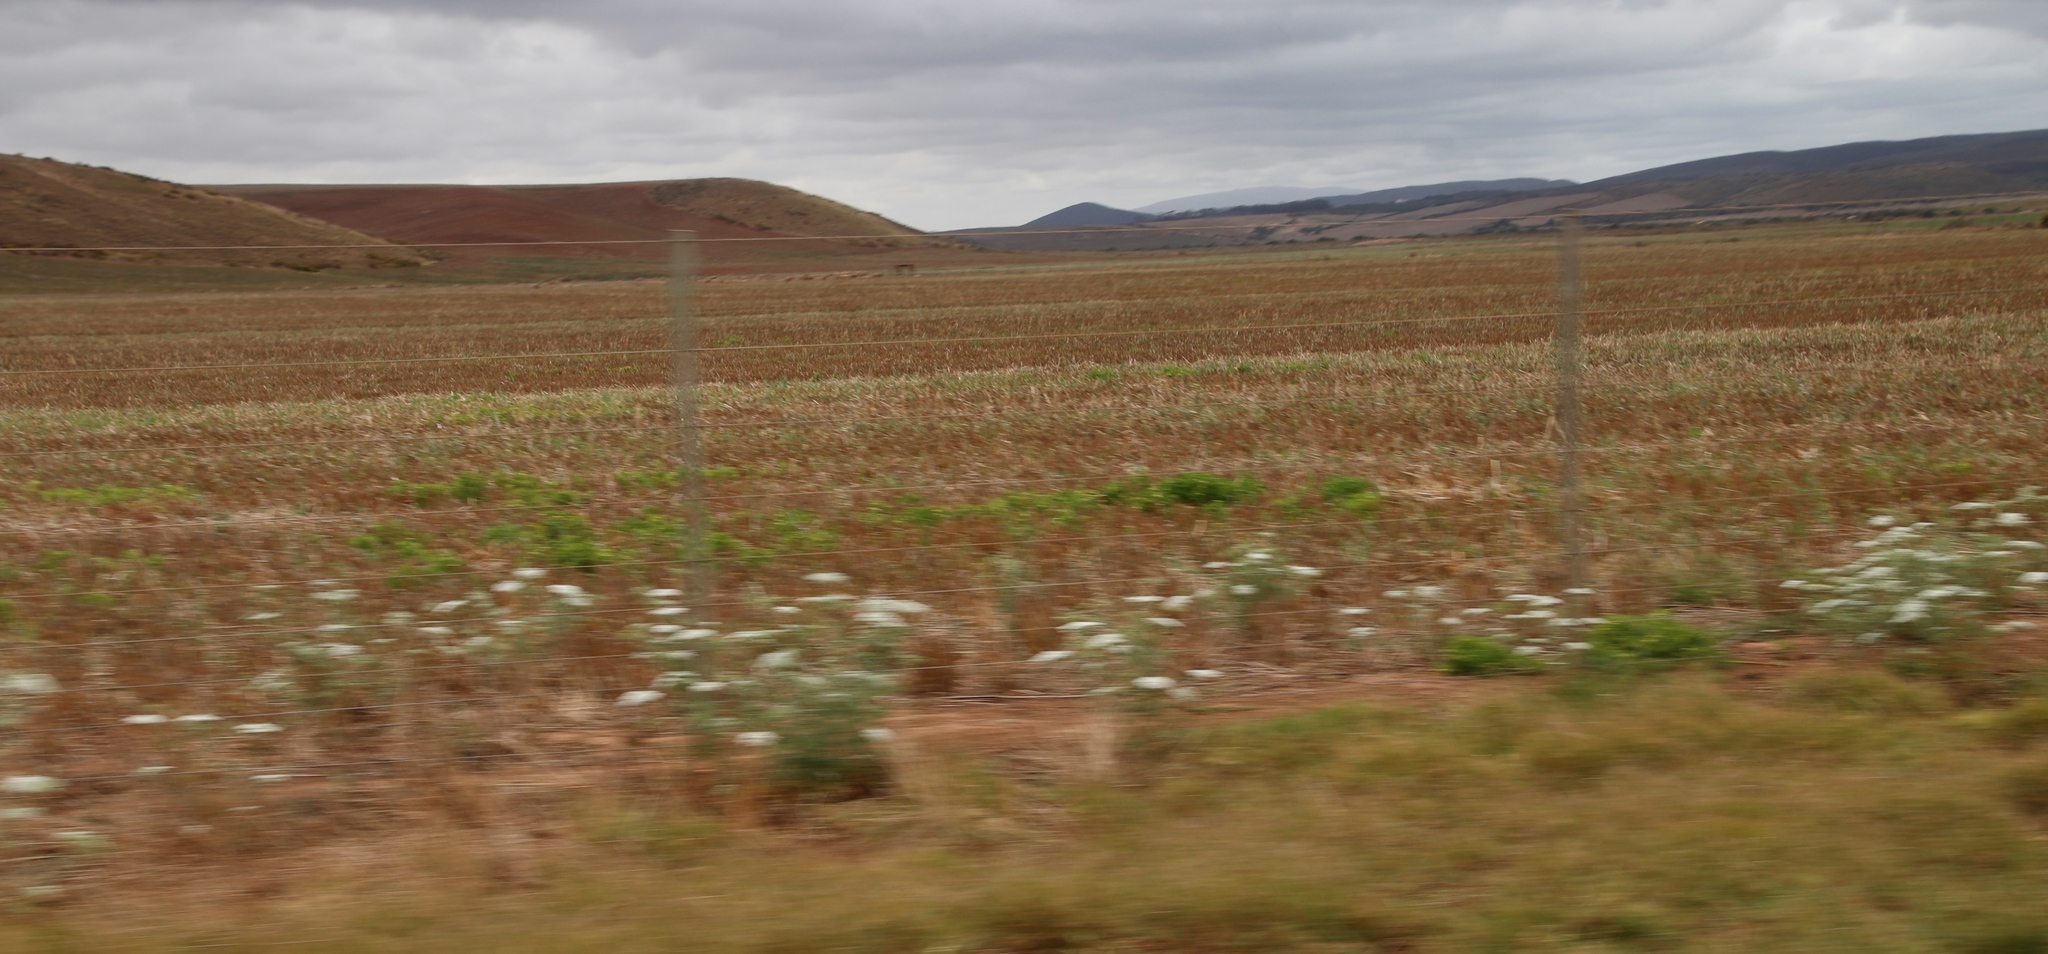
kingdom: Plantae
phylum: Tracheophyta
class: Magnoliopsida
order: Apiales
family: Apiaceae
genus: Ammi
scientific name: Ammi majus
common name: Bullwort
